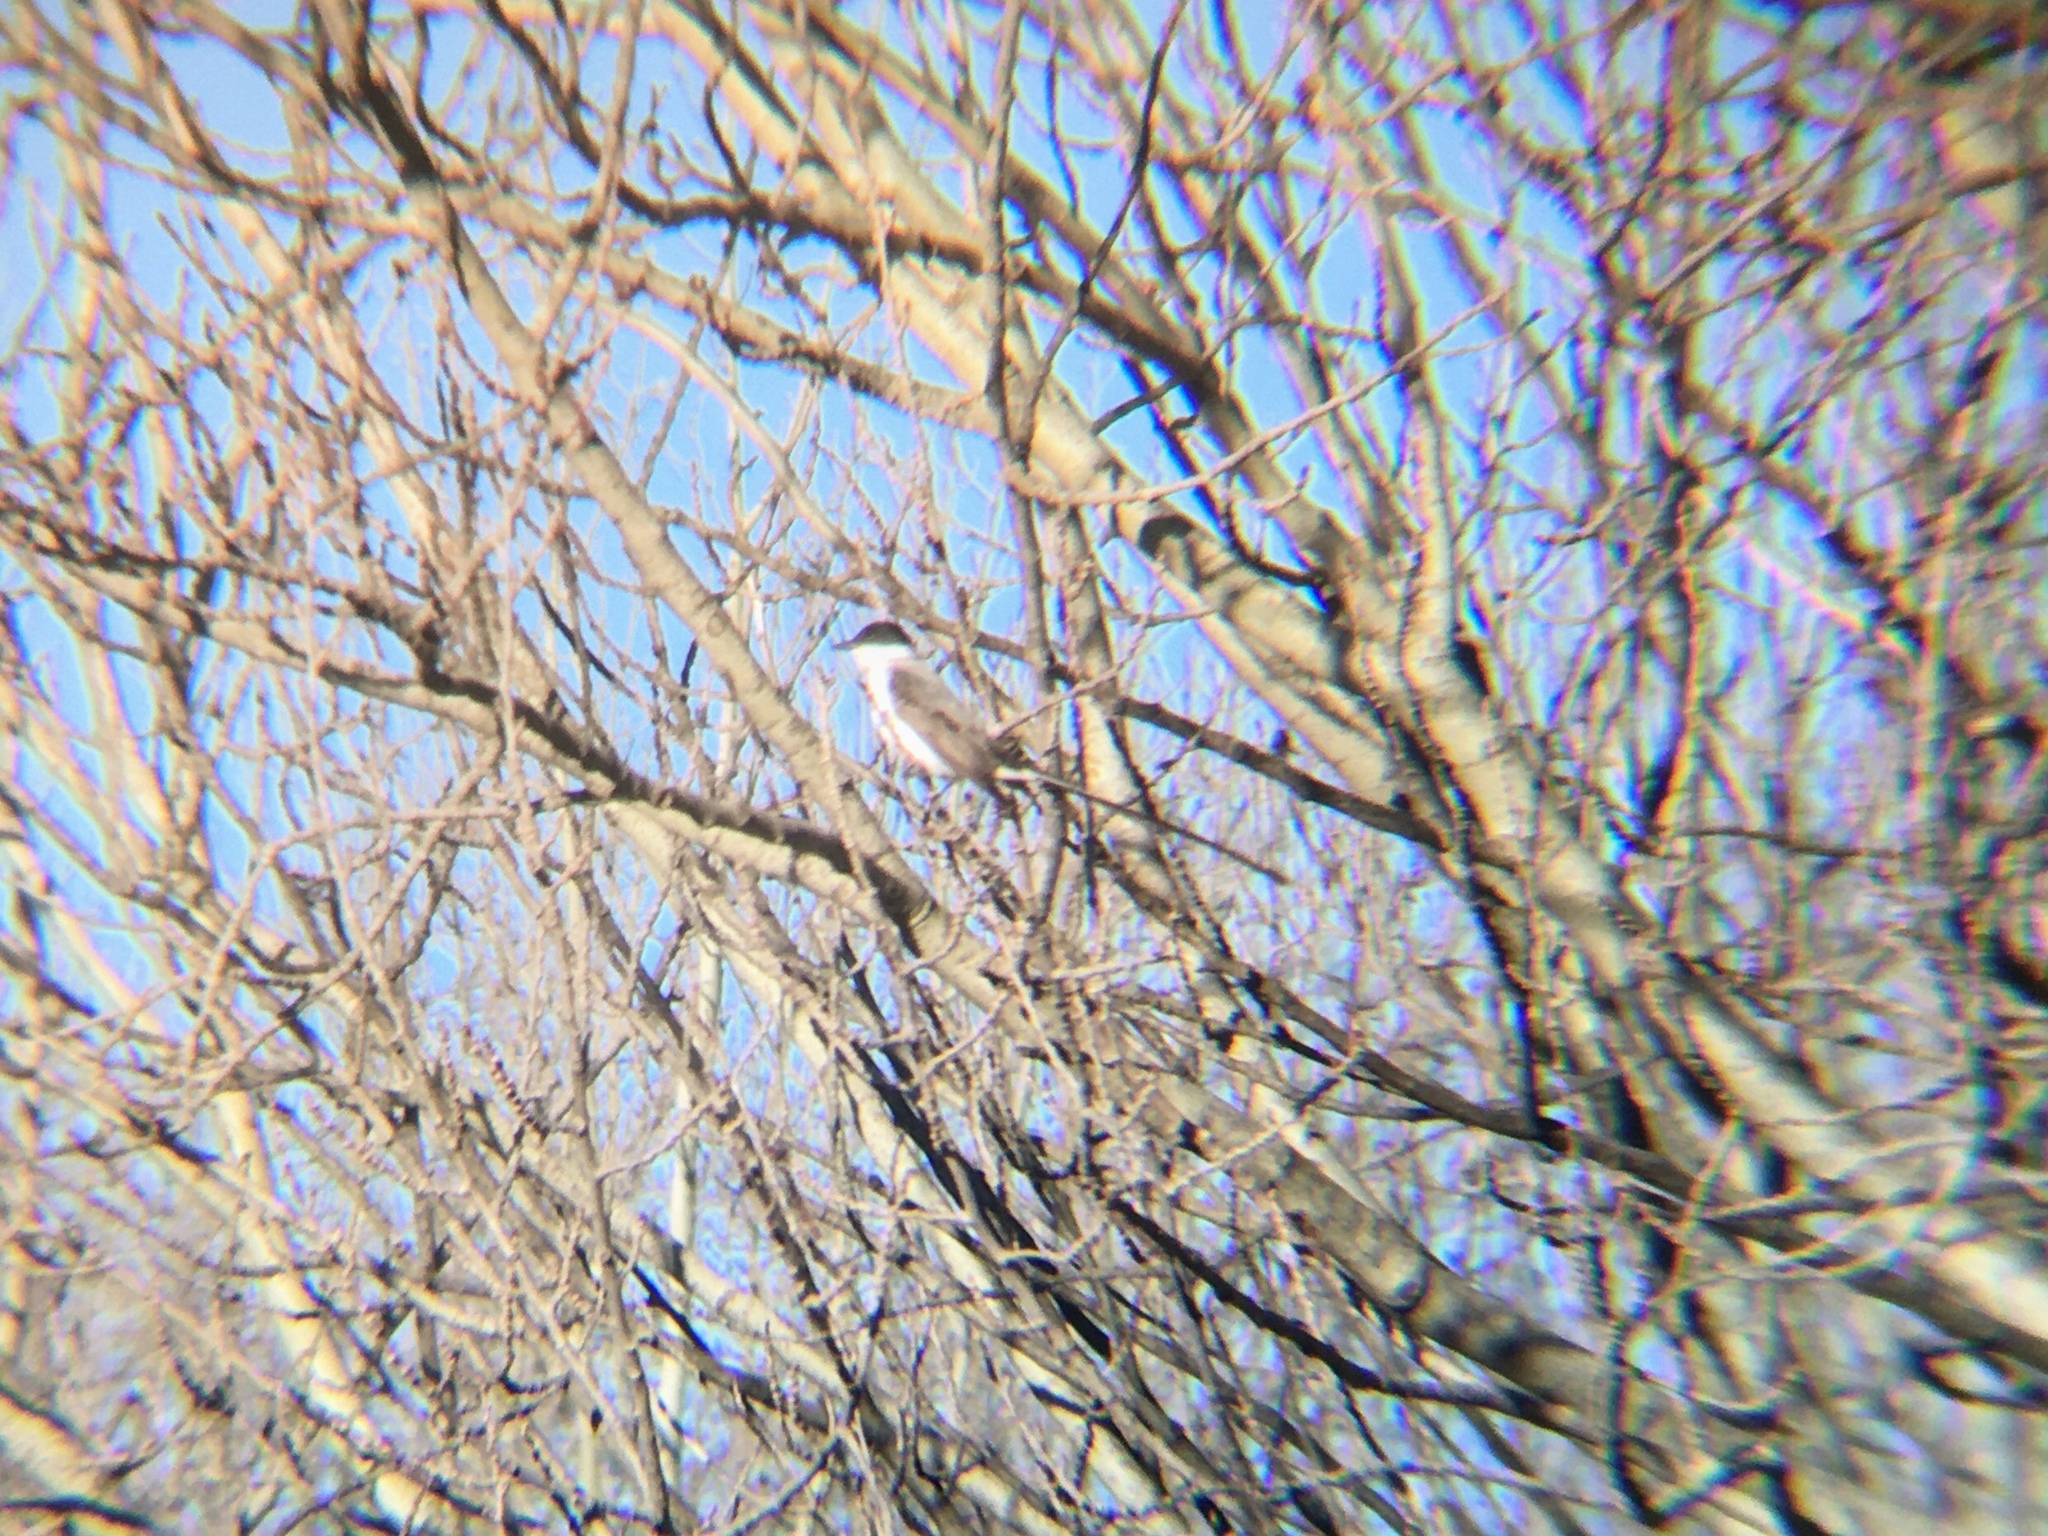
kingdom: Animalia
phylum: Chordata
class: Aves
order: Passeriformes
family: Tyrannidae
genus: Tyrannus
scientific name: Tyrannus savana
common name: Fork-tailed flycatcher
